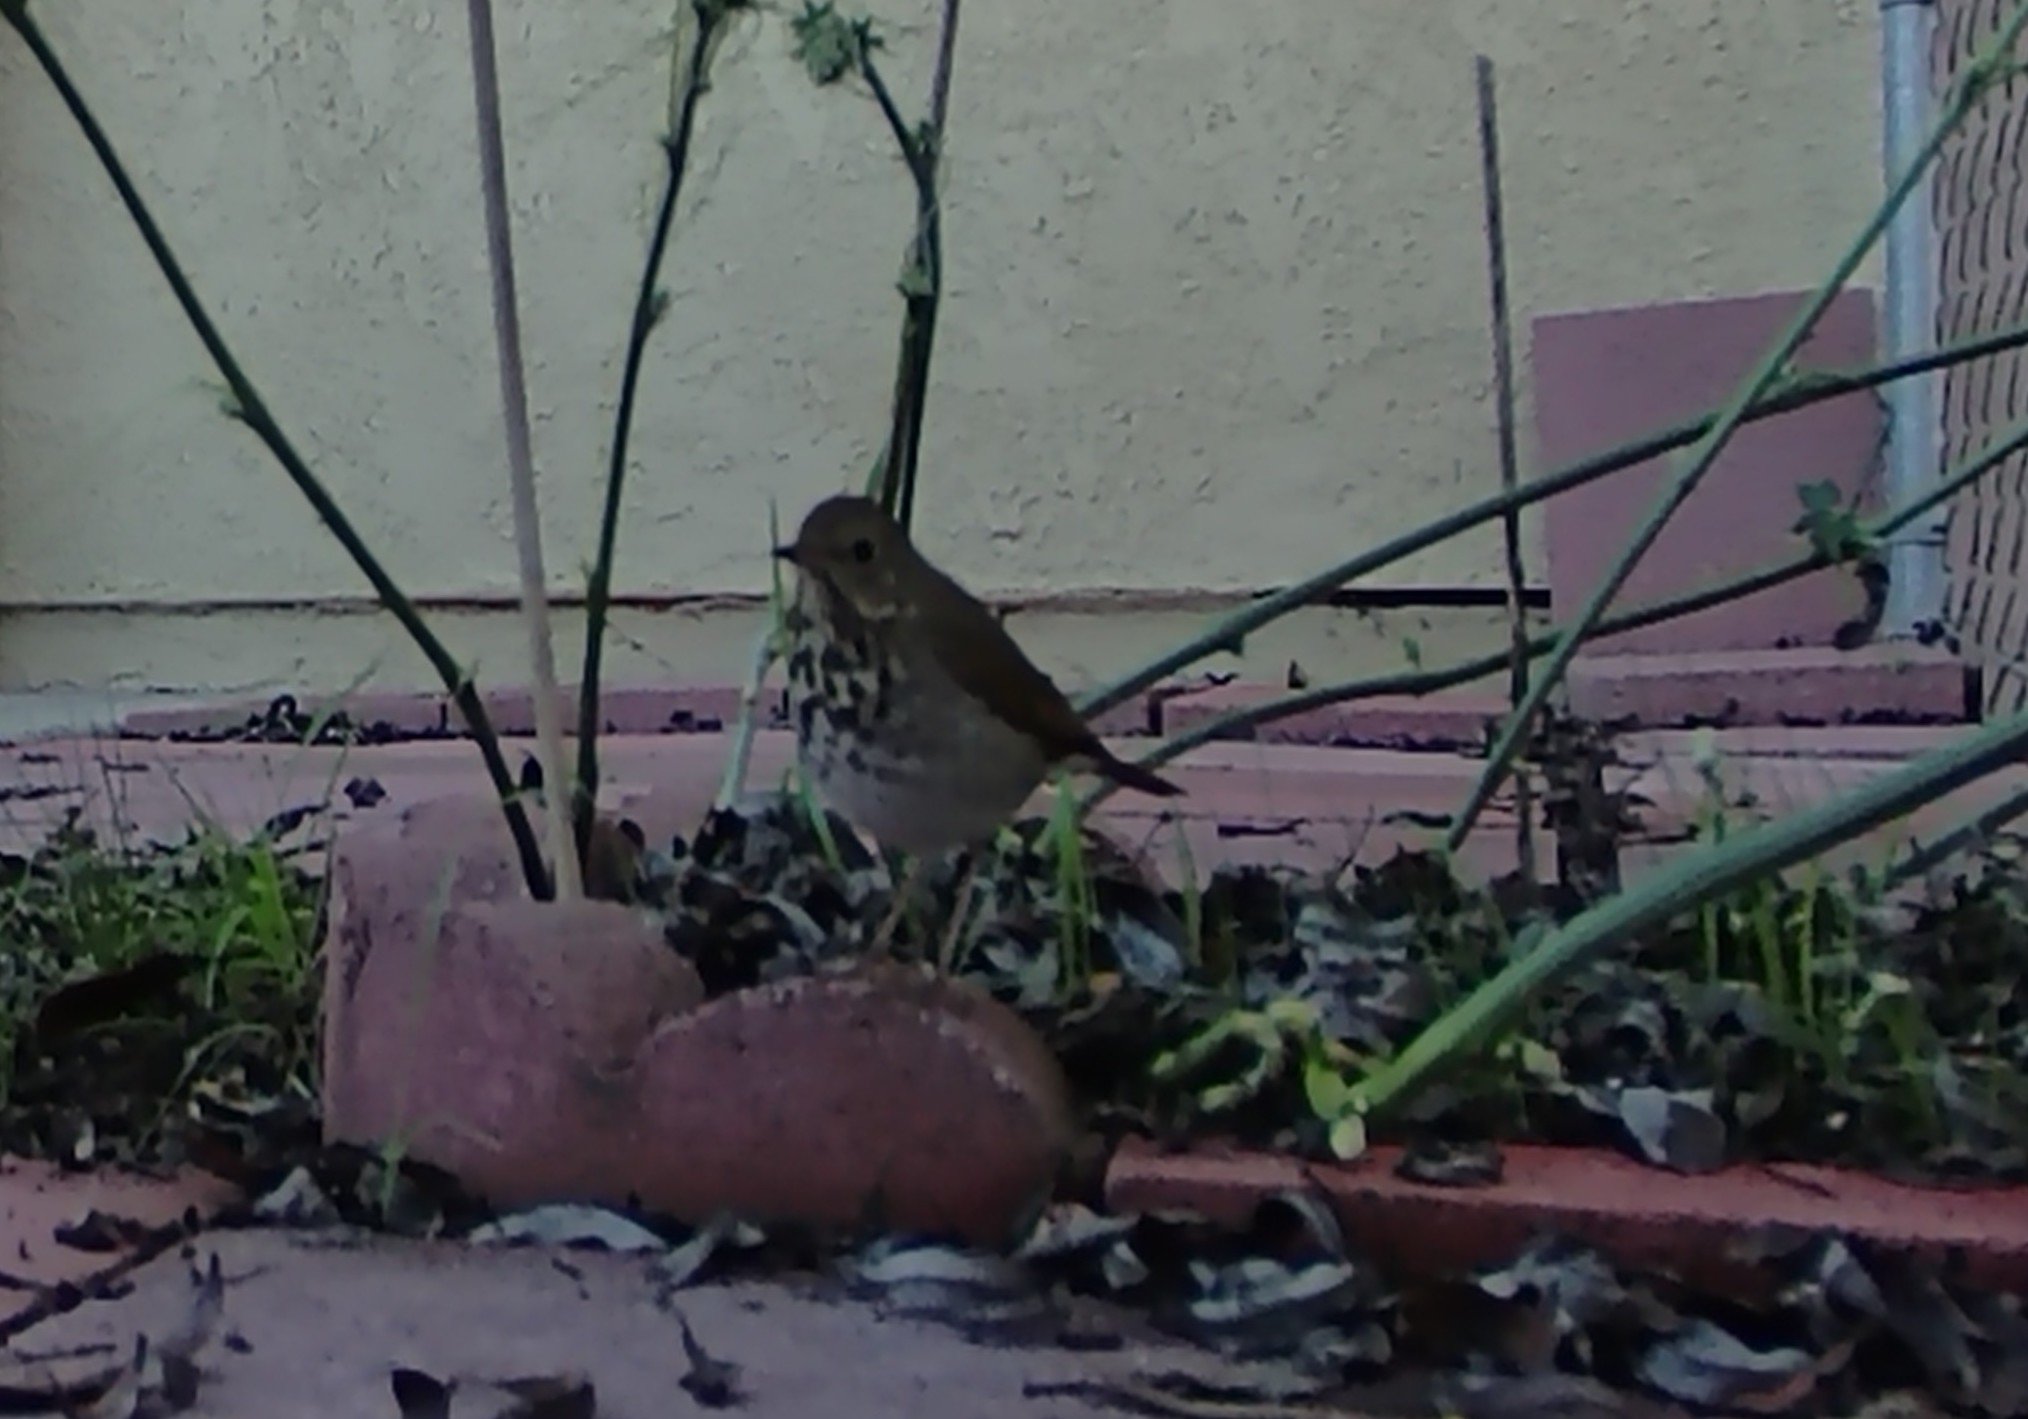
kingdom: Animalia
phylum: Chordata
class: Aves
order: Passeriformes
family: Turdidae
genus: Catharus
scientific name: Catharus guttatus
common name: Hermit thrush
